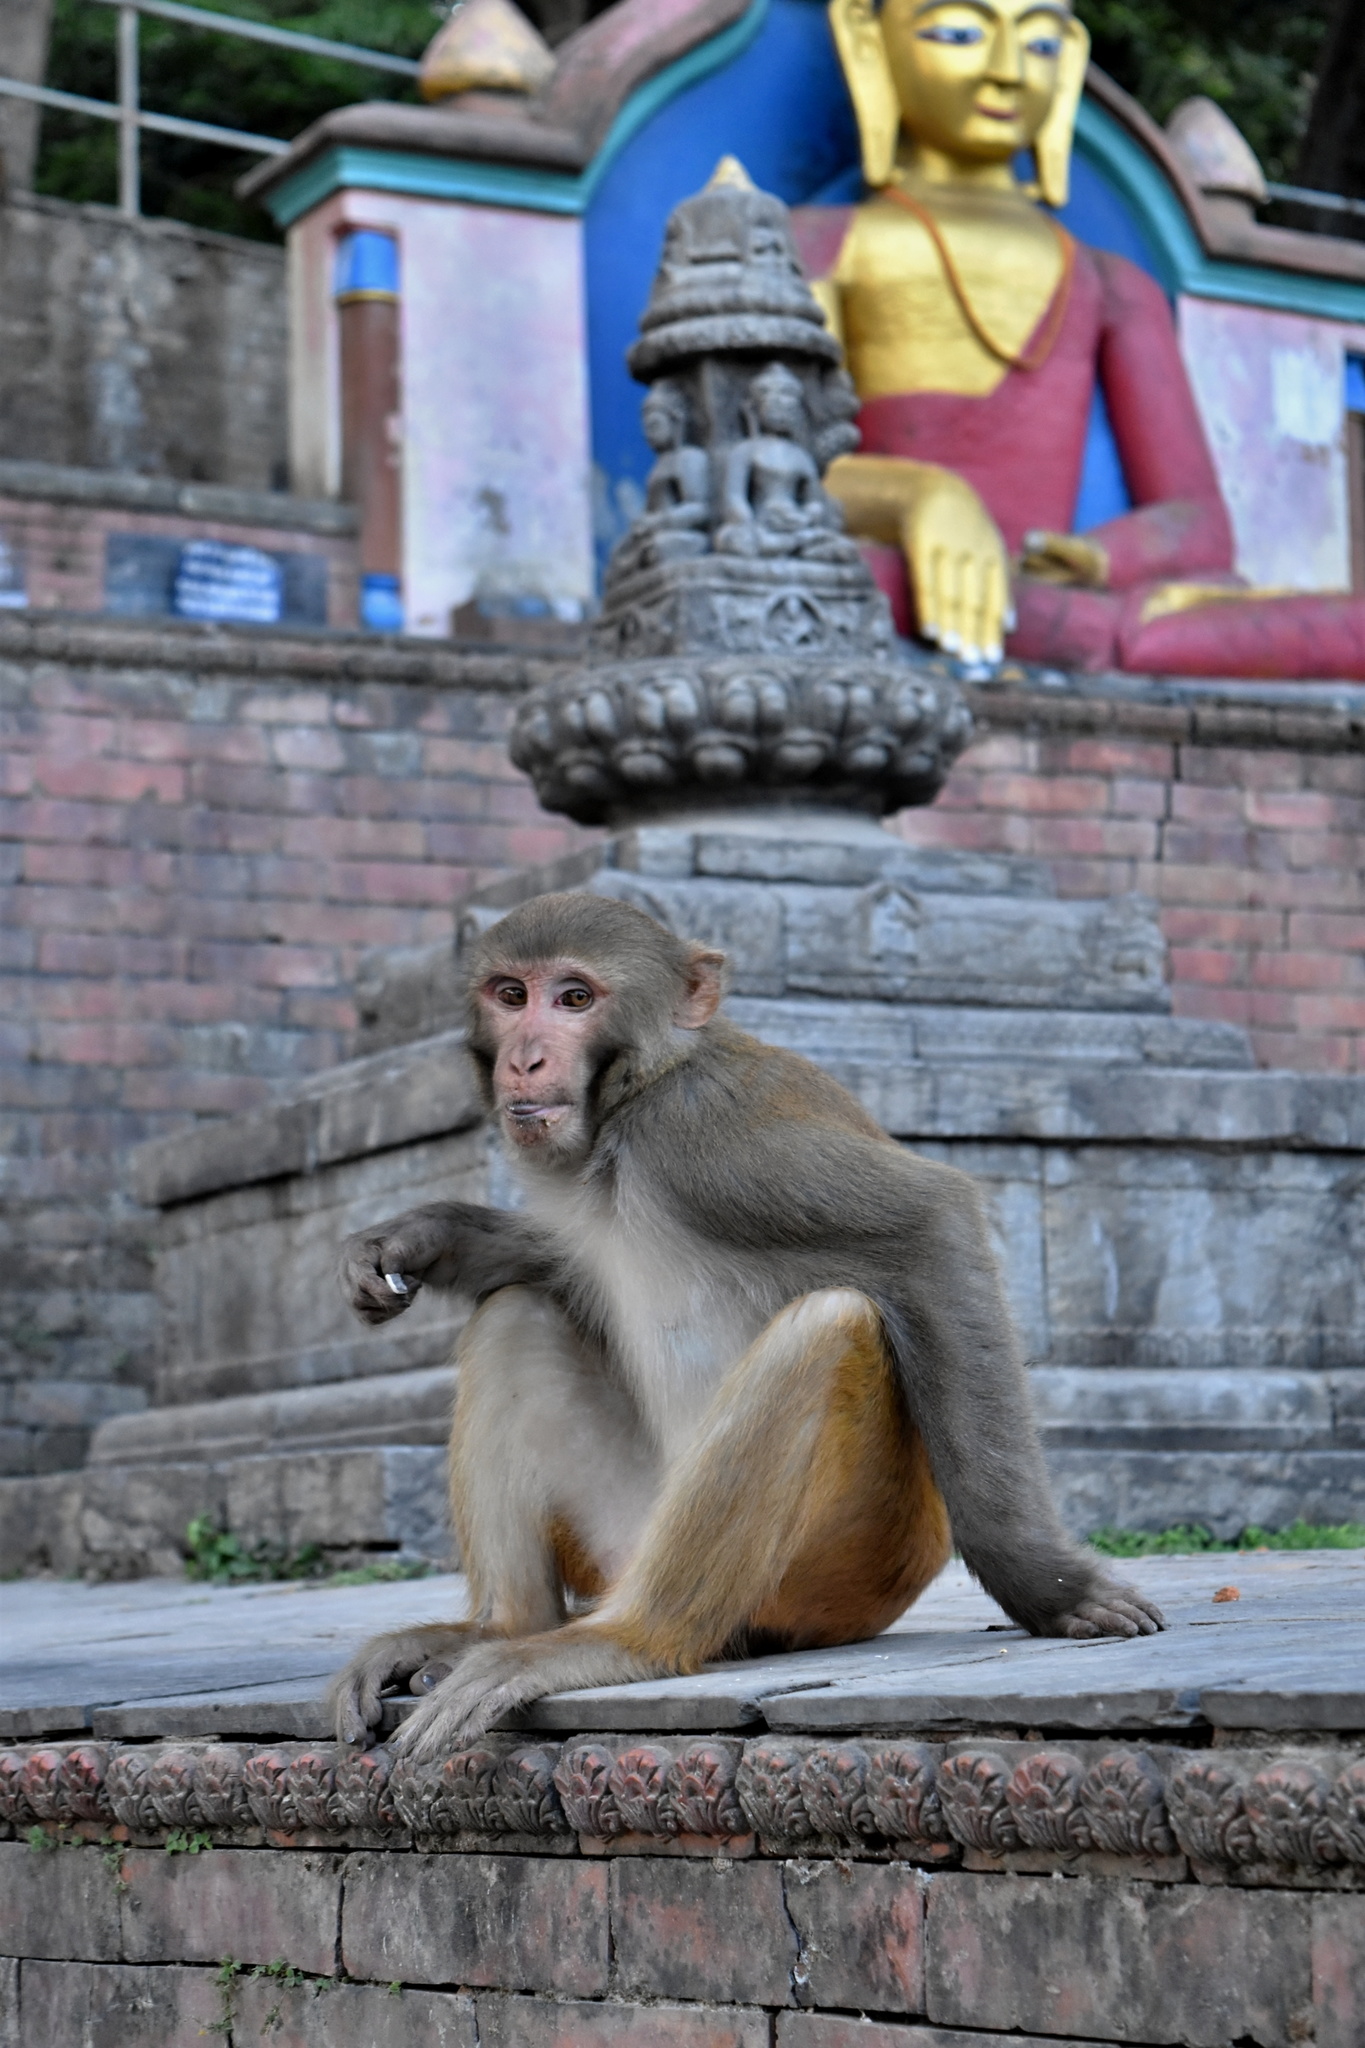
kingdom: Animalia
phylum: Chordata
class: Mammalia
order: Primates
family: Cercopithecidae
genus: Macaca
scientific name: Macaca mulatta
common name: Rhesus monkey
